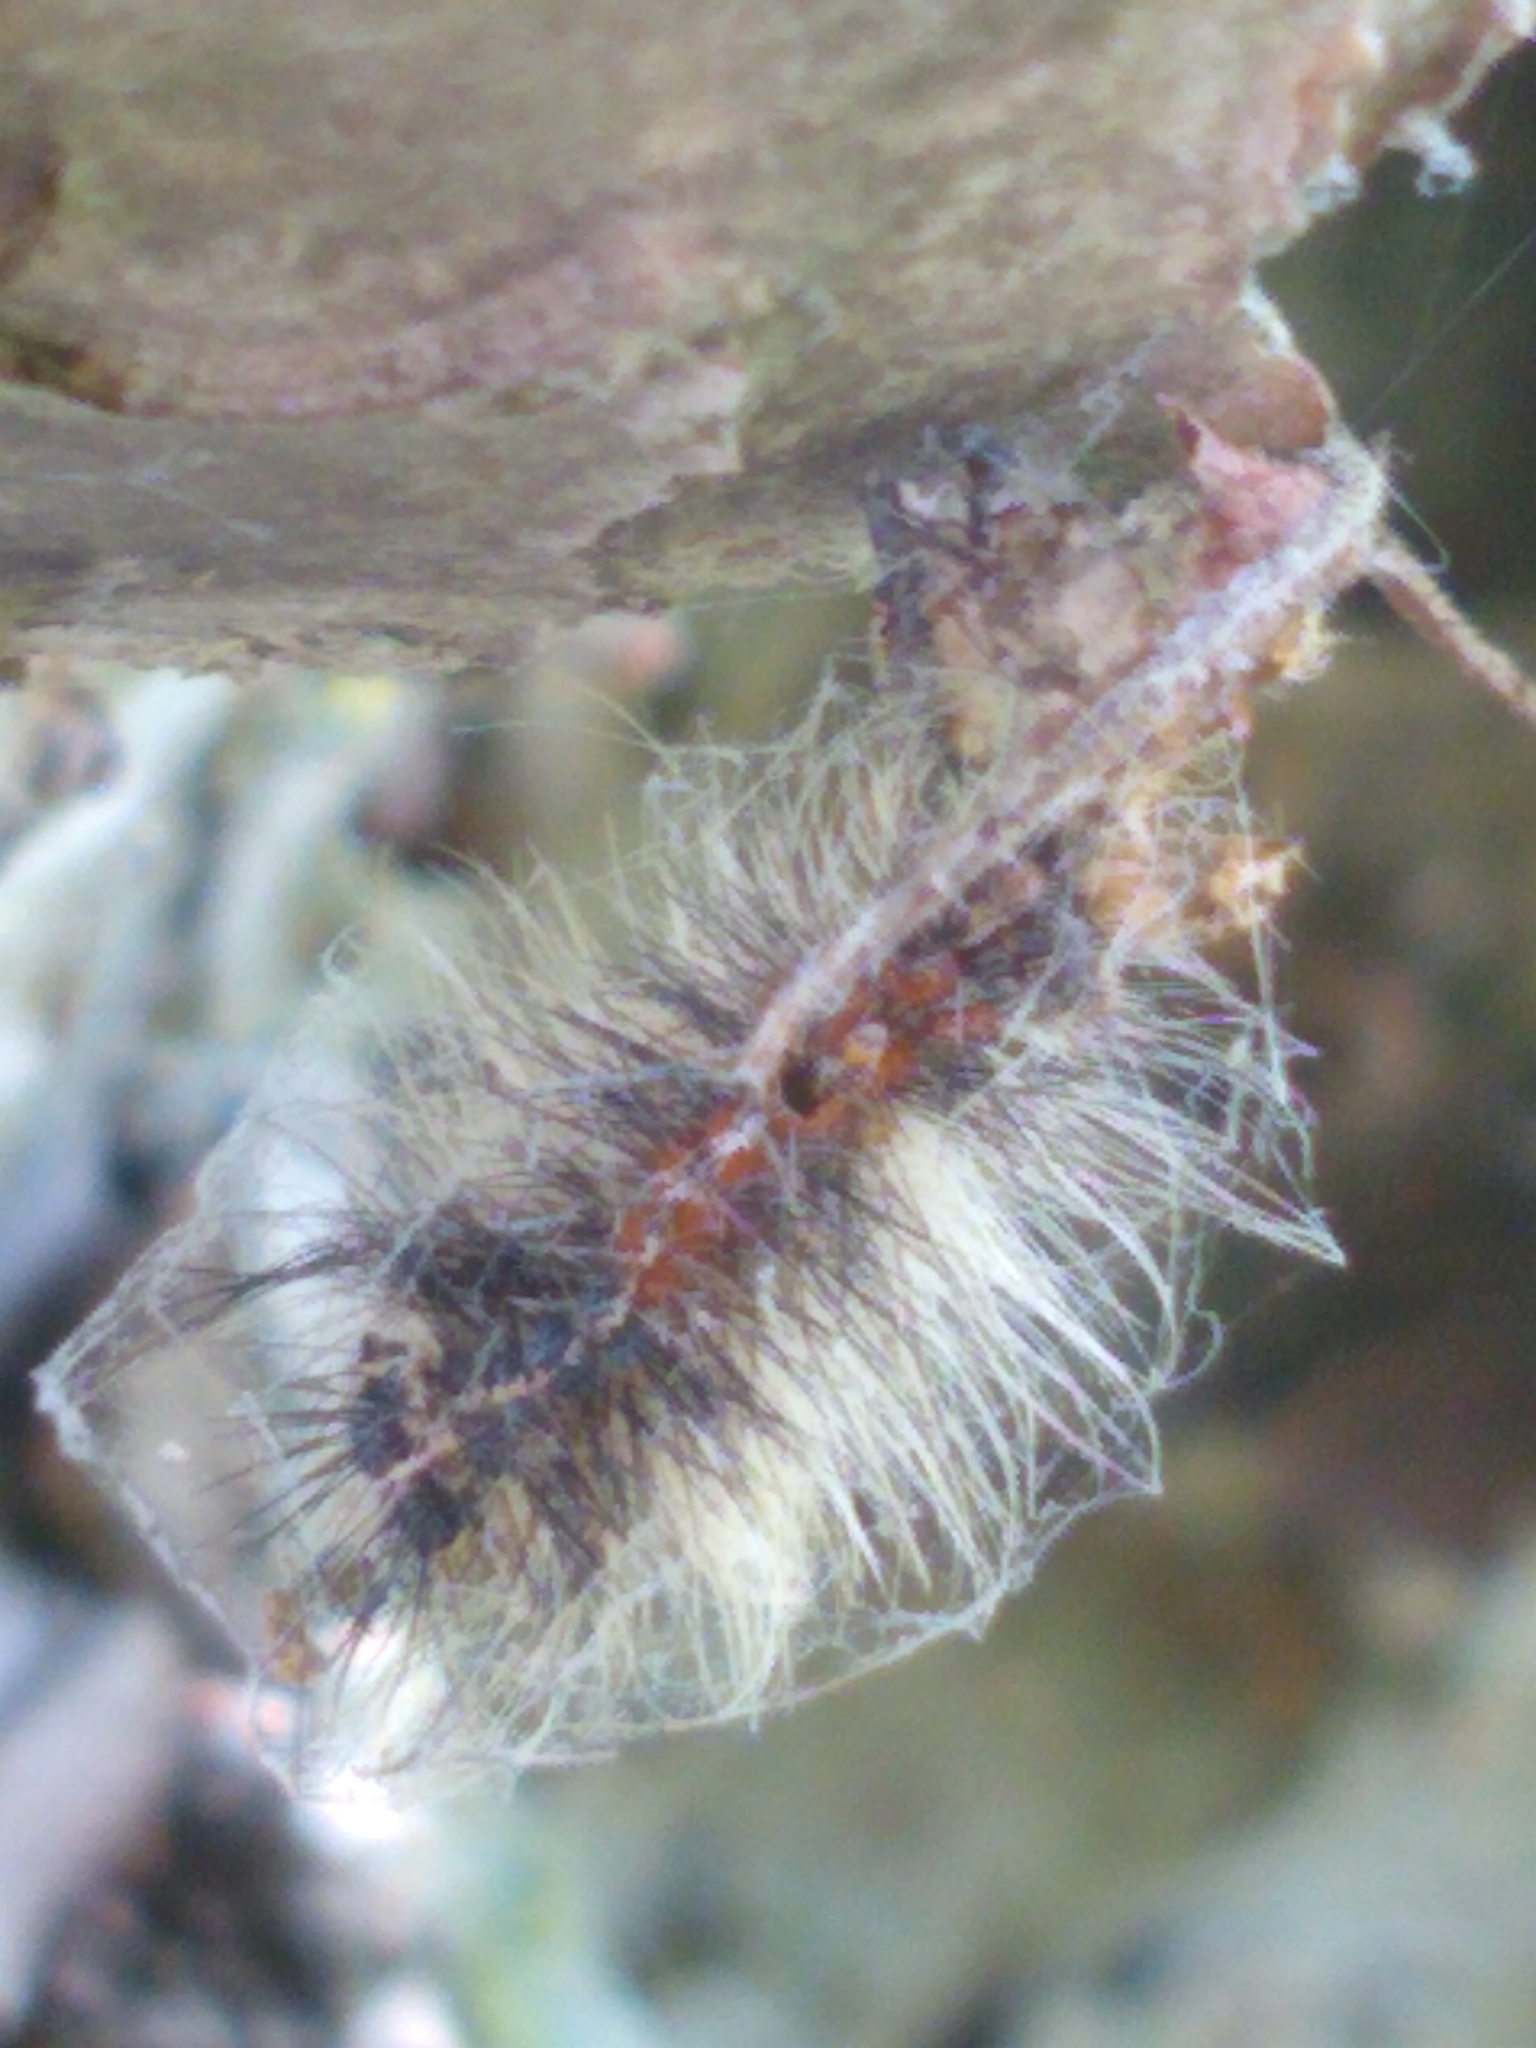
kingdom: Animalia
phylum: Arthropoda
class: Insecta
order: Lepidoptera
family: Erebidae
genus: Lymantria
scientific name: Lymantria dispar
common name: Gypsy moth
